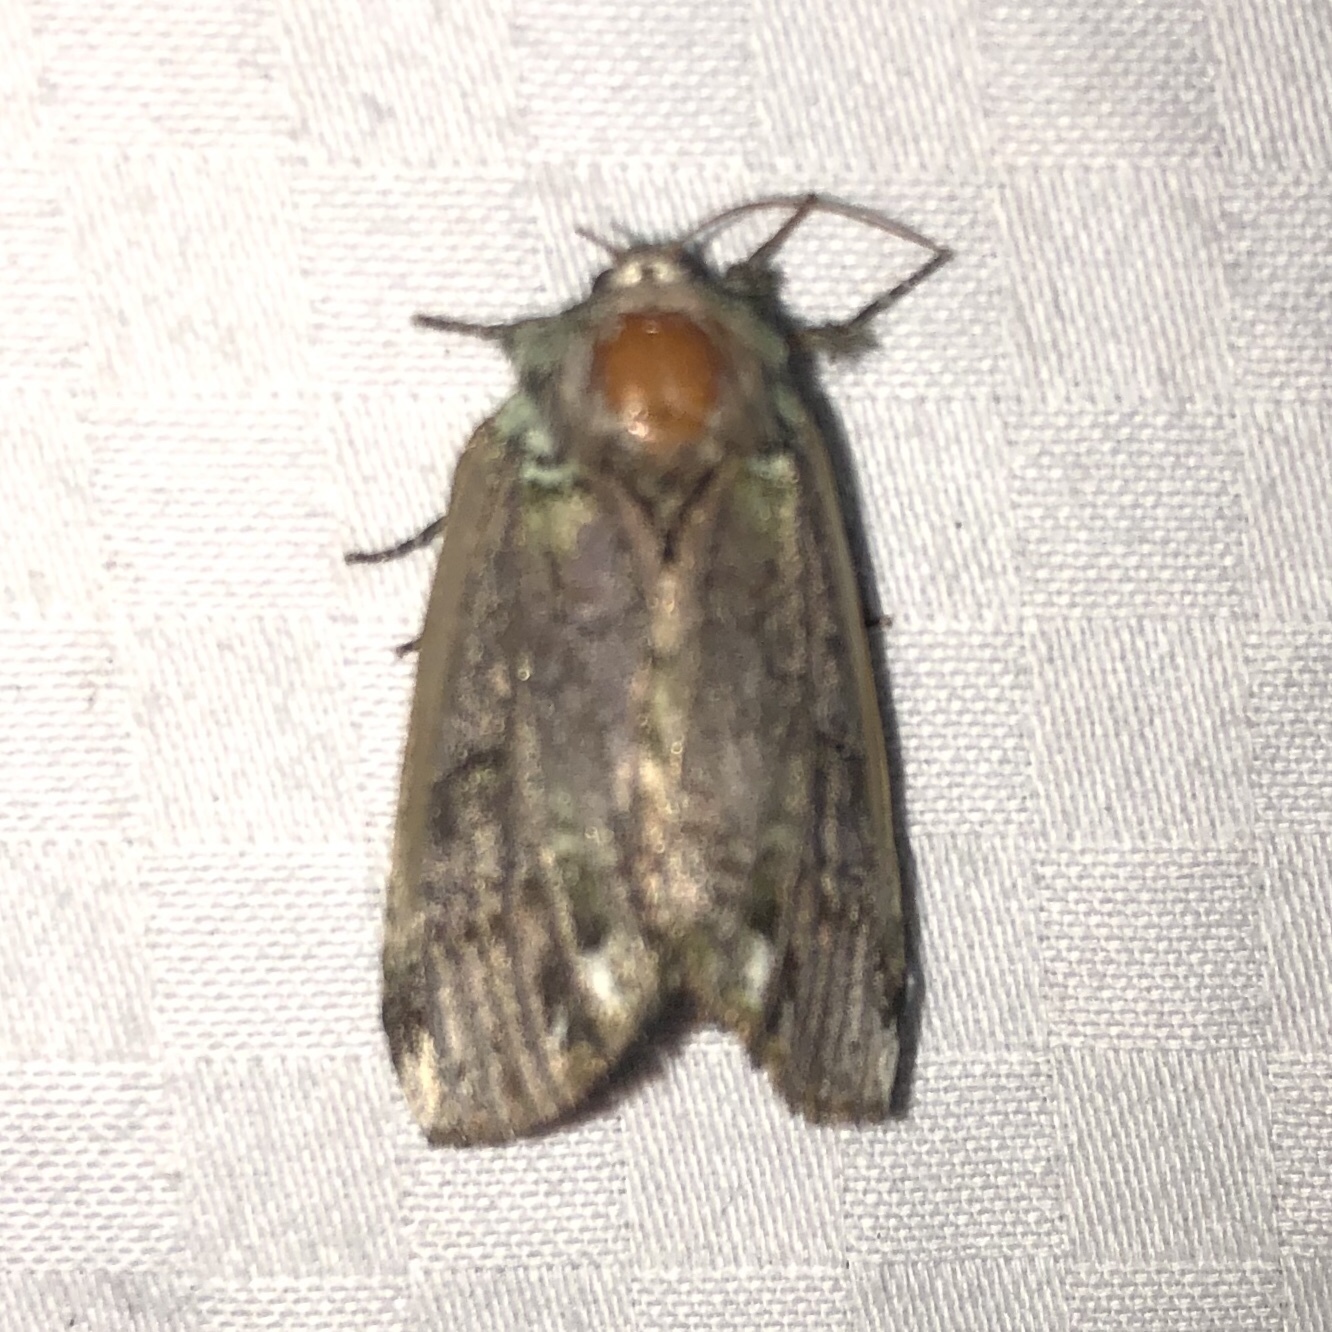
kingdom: Animalia
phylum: Arthropoda
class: Insecta
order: Lepidoptera
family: Notodontidae
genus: Schizura
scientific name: Schizura
